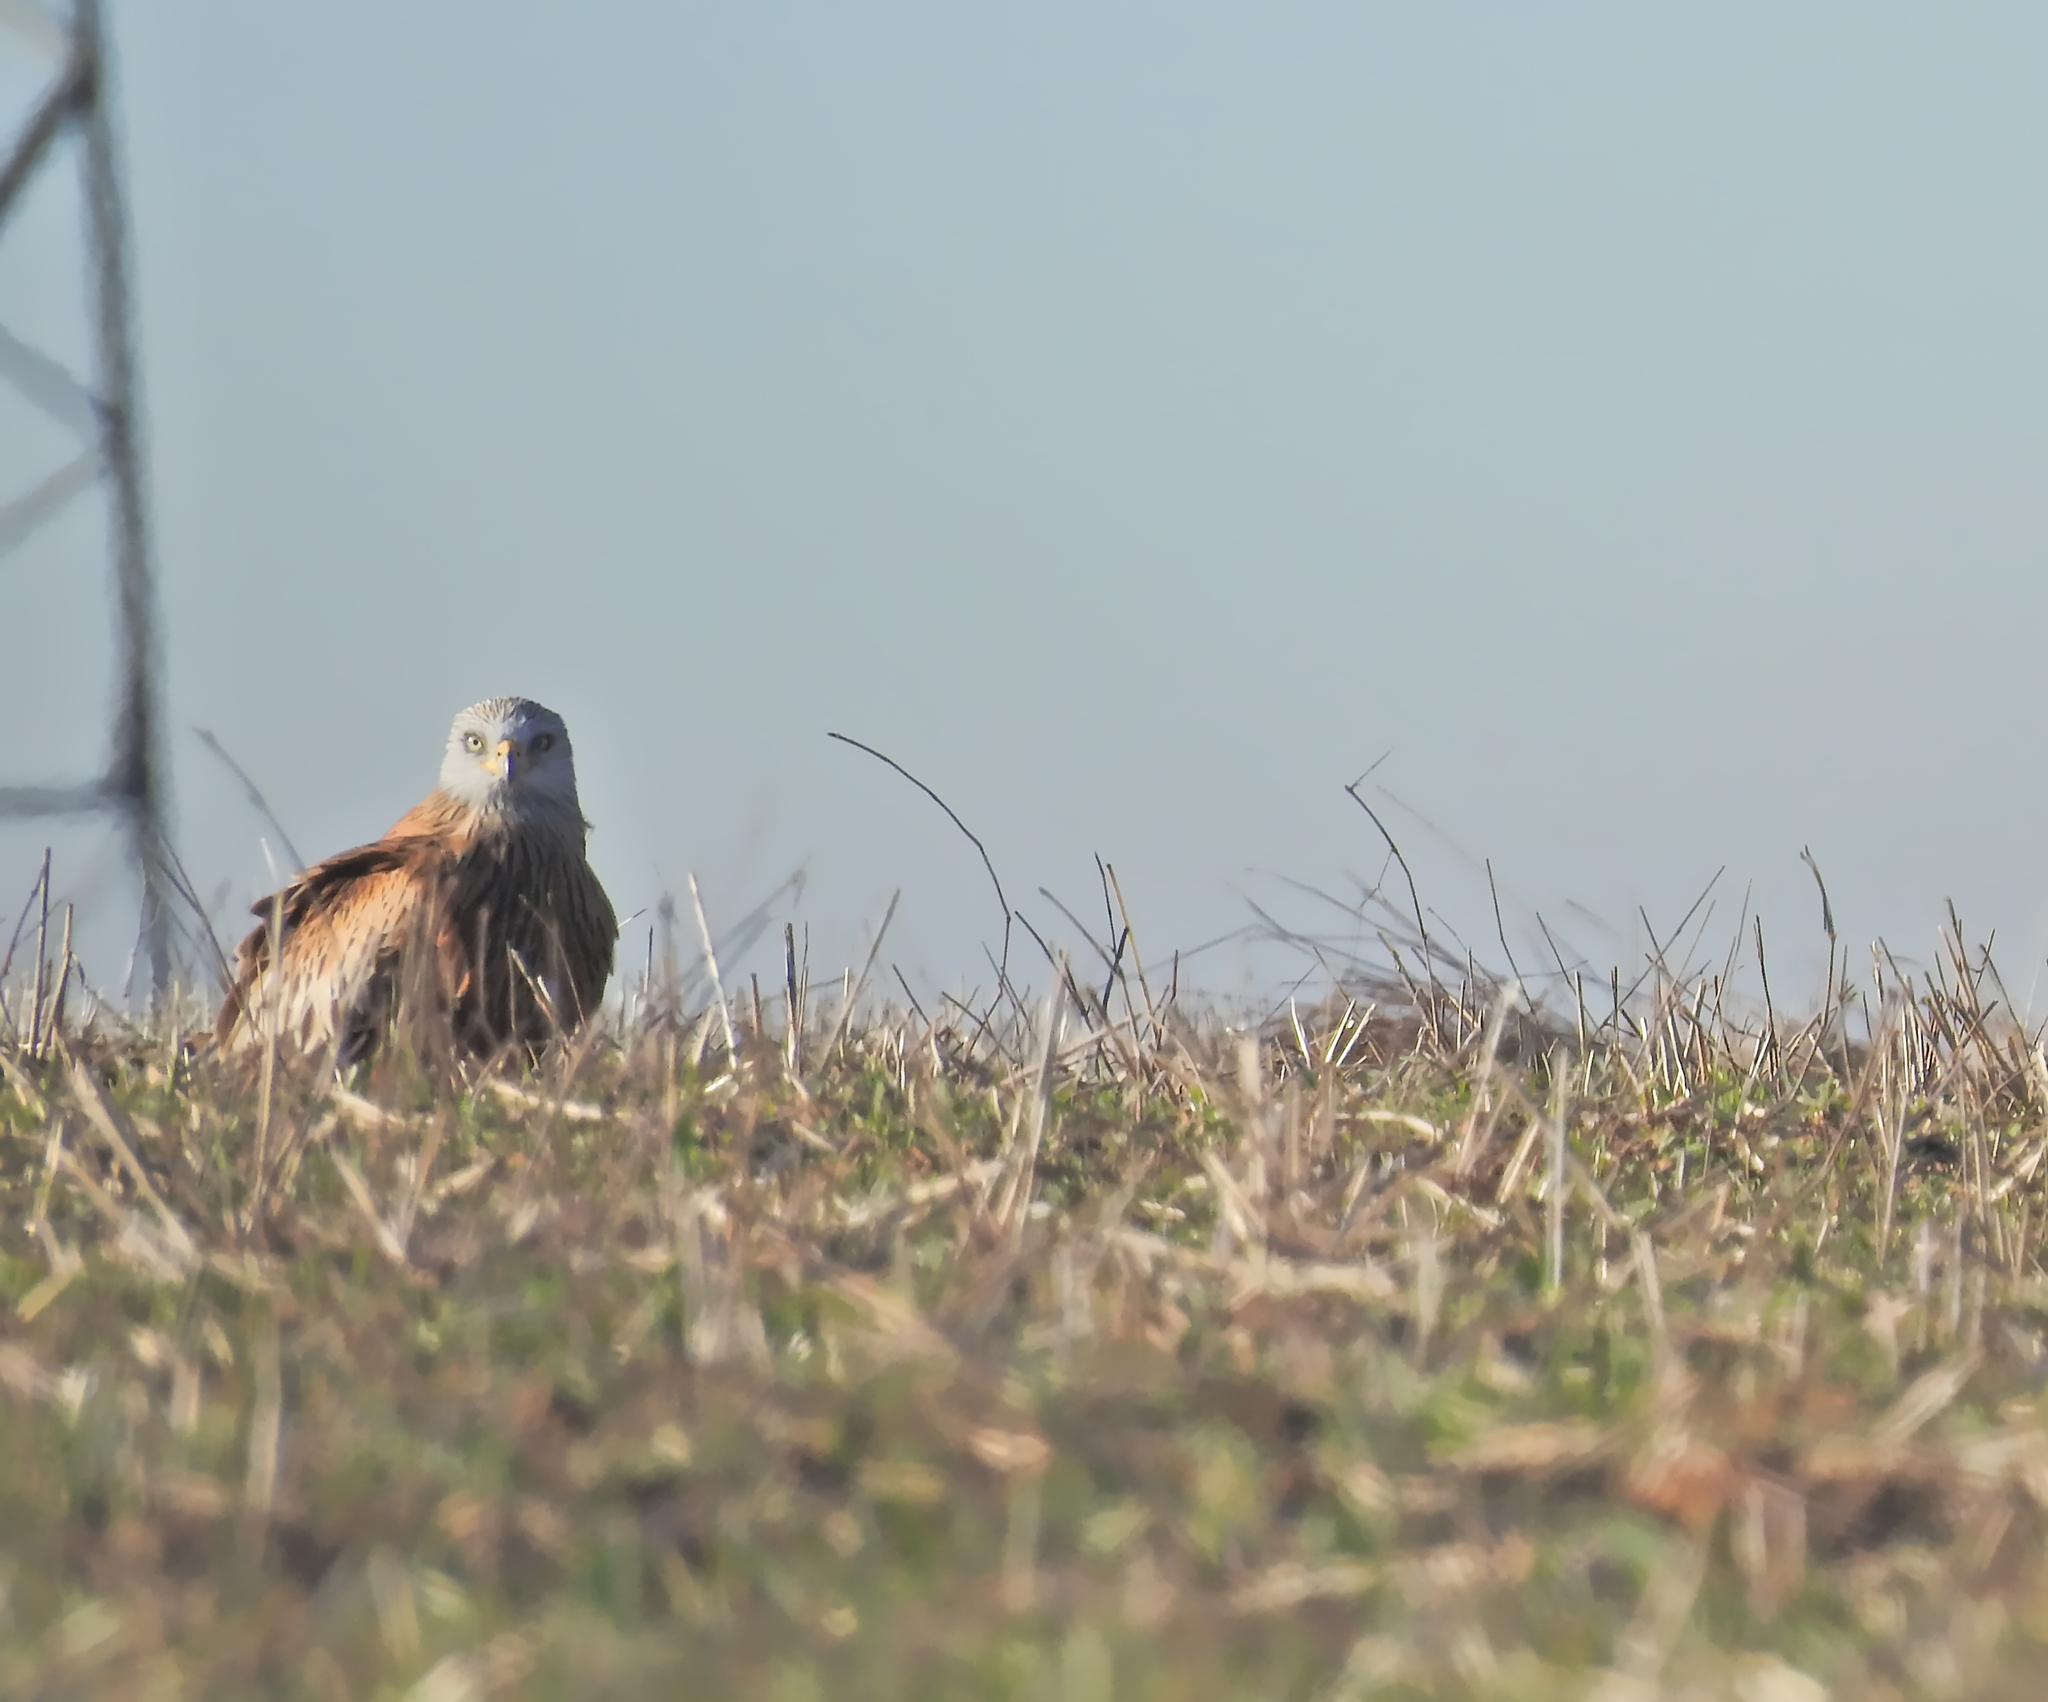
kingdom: Animalia
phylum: Chordata
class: Aves
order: Accipitriformes
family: Accipitridae
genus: Milvus
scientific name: Milvus milvus
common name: Red kite
